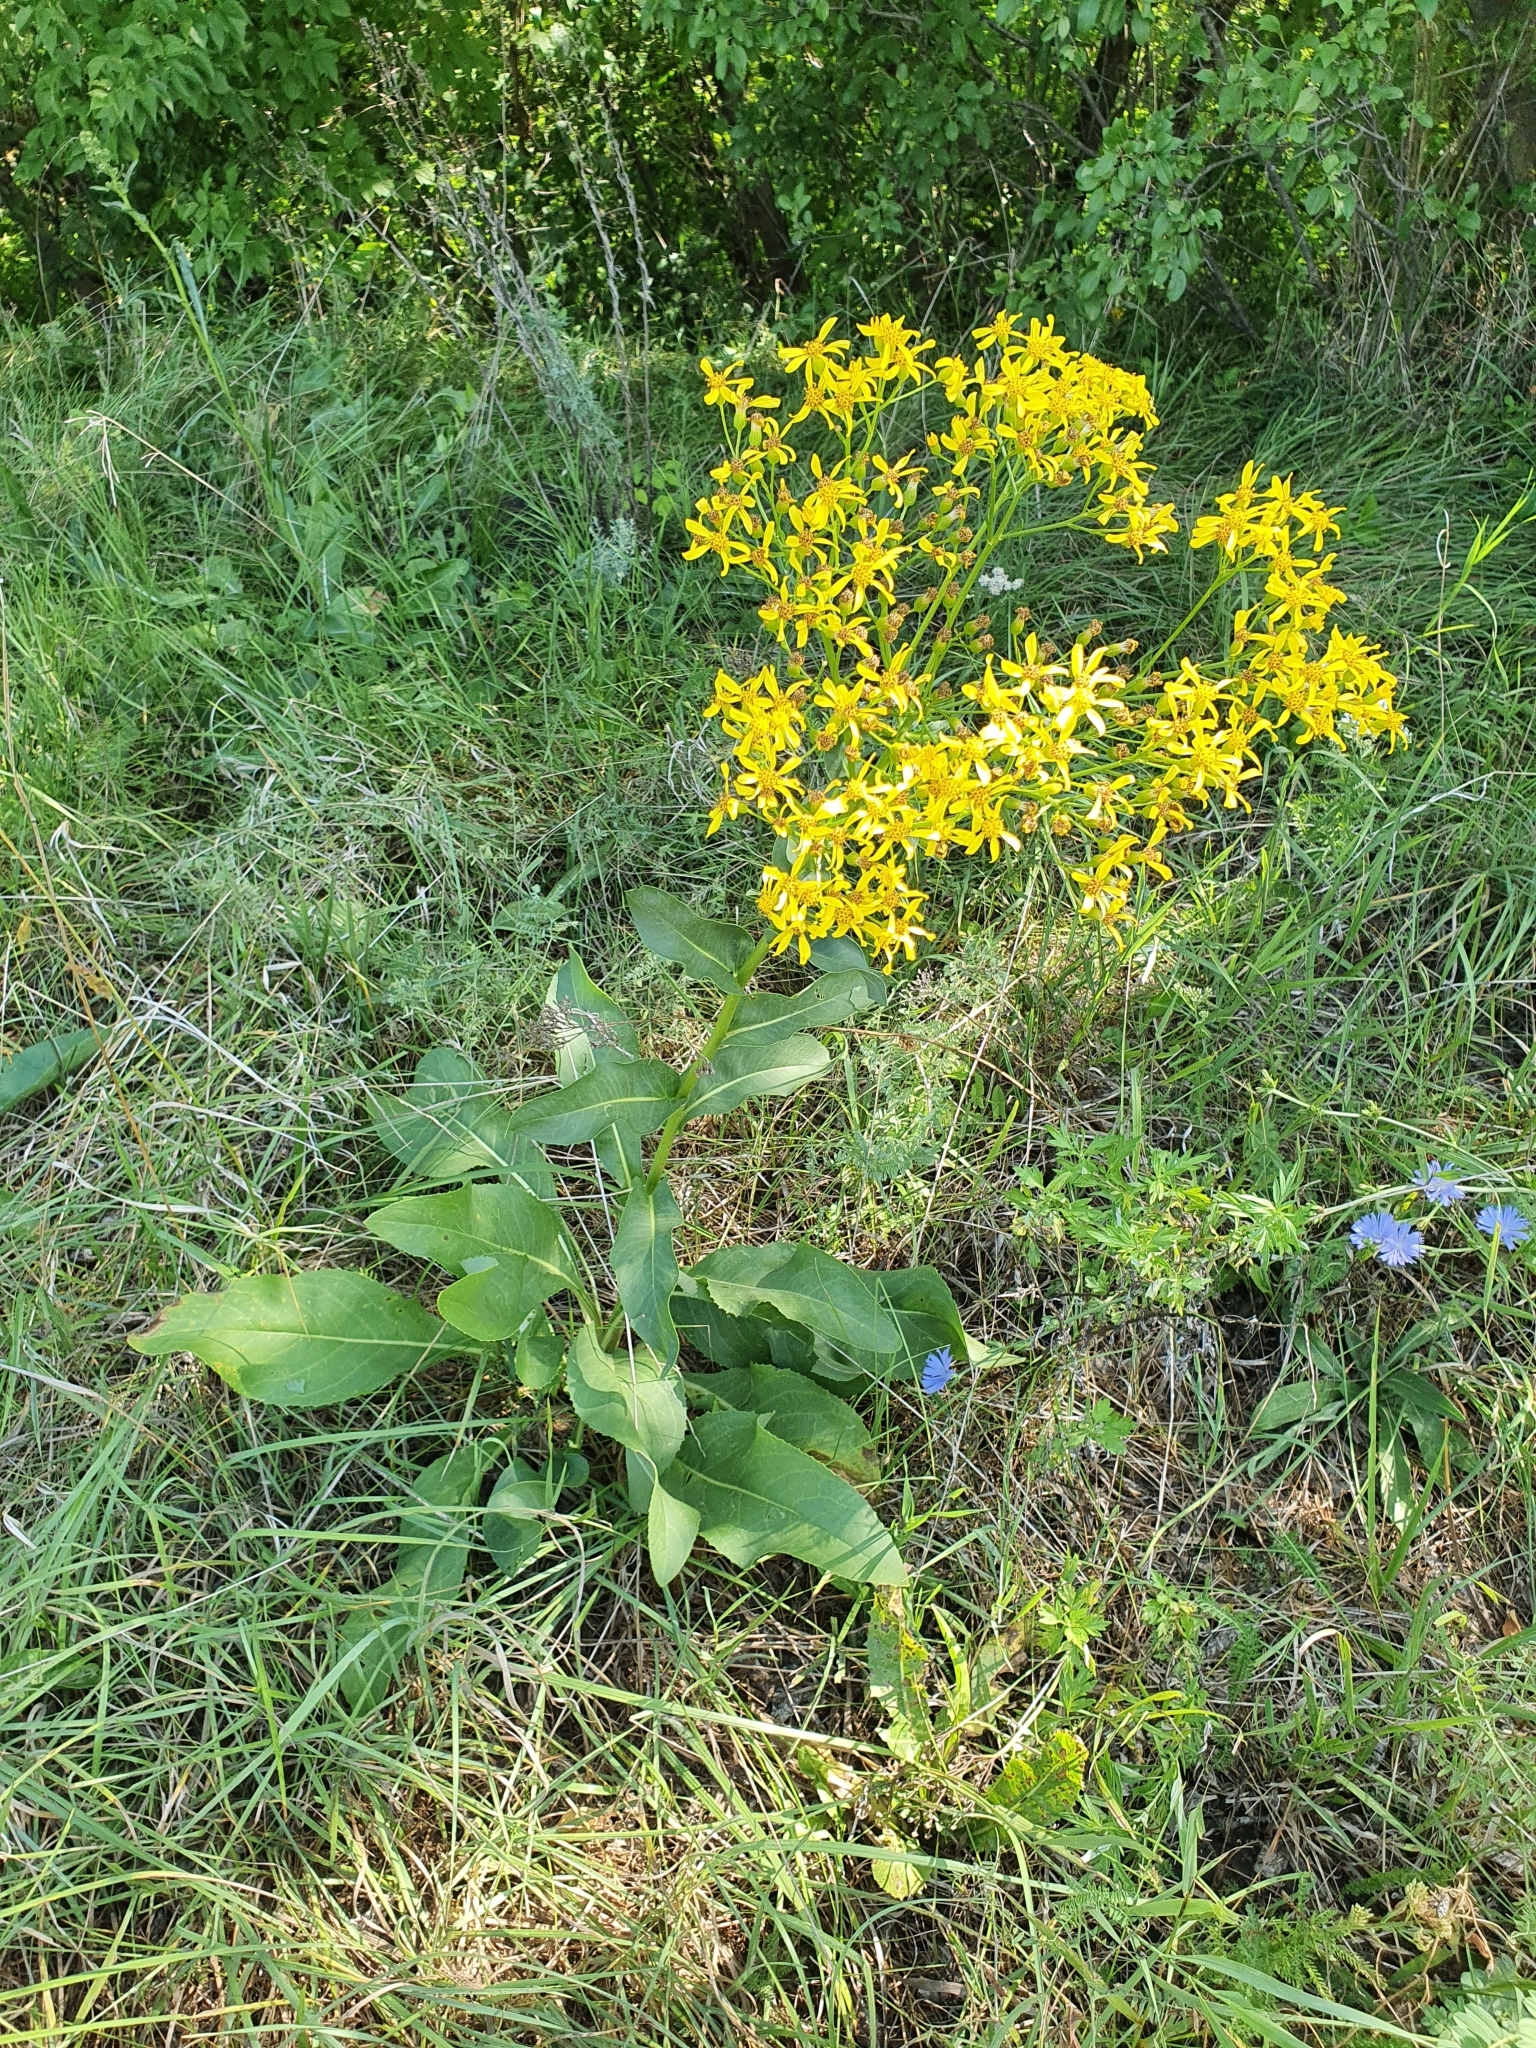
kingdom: Plantae
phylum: Tracheophyta
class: Magnoliopsida
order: Asterales
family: Asteraceae
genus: Senecio
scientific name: Senecio doria
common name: Golden ragwort
